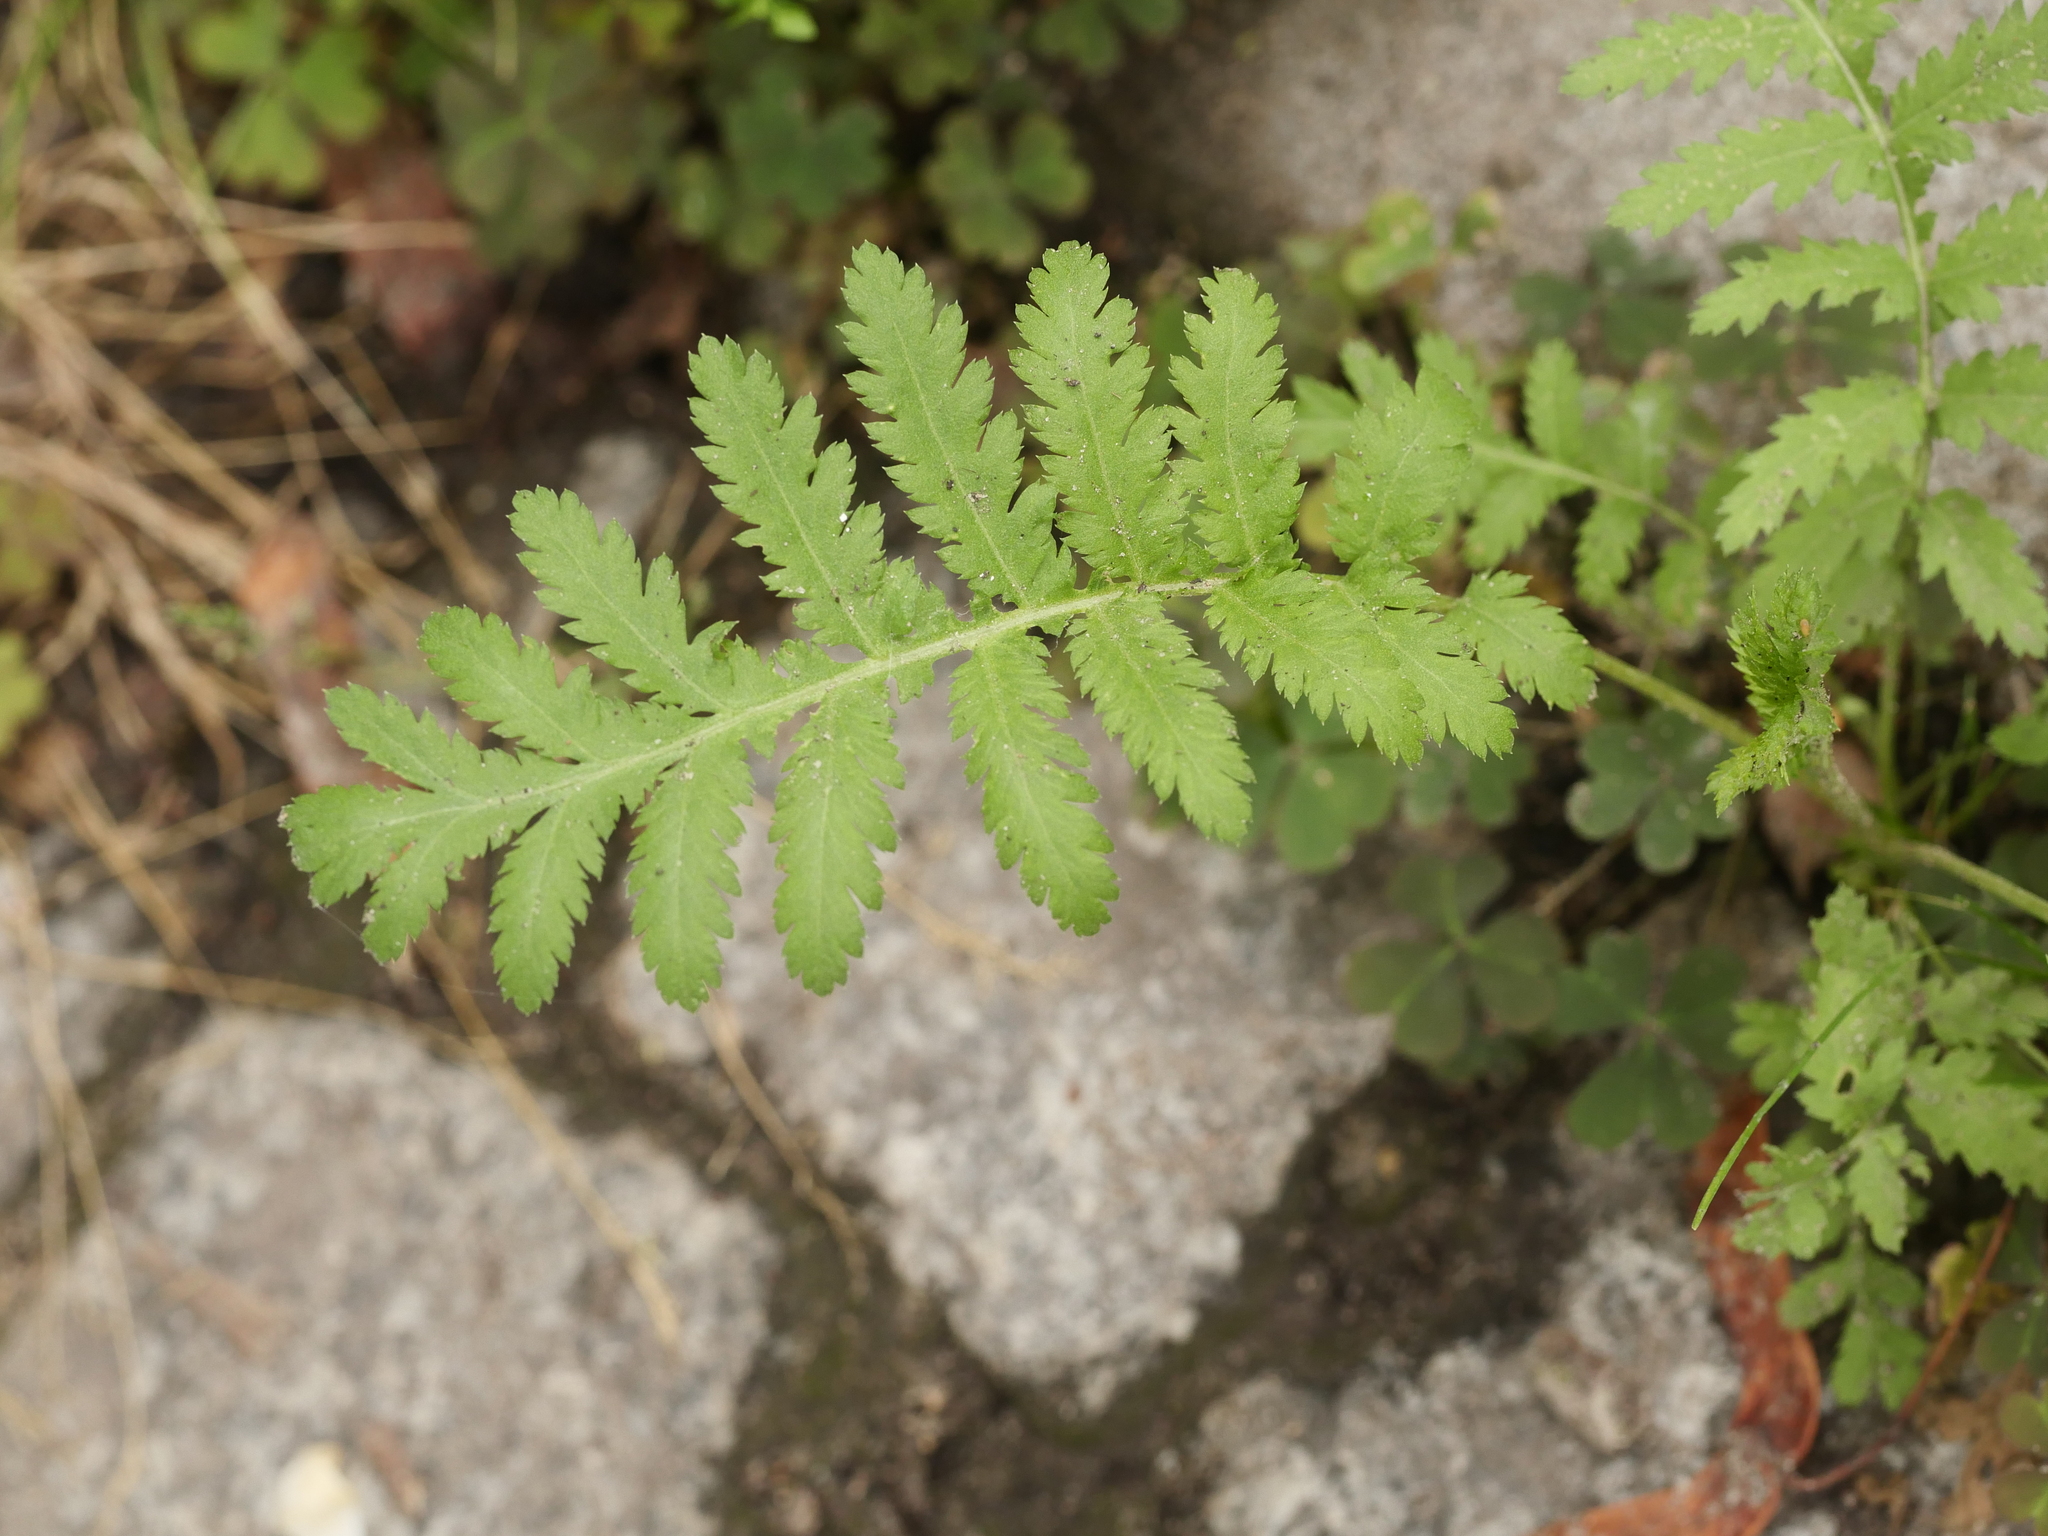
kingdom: Plantae
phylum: Tracheophyta
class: Magnoliopsida
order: Asterales
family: Asteraceae
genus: Tanacetum
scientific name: Tanacetum vulgare
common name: Common tansy
